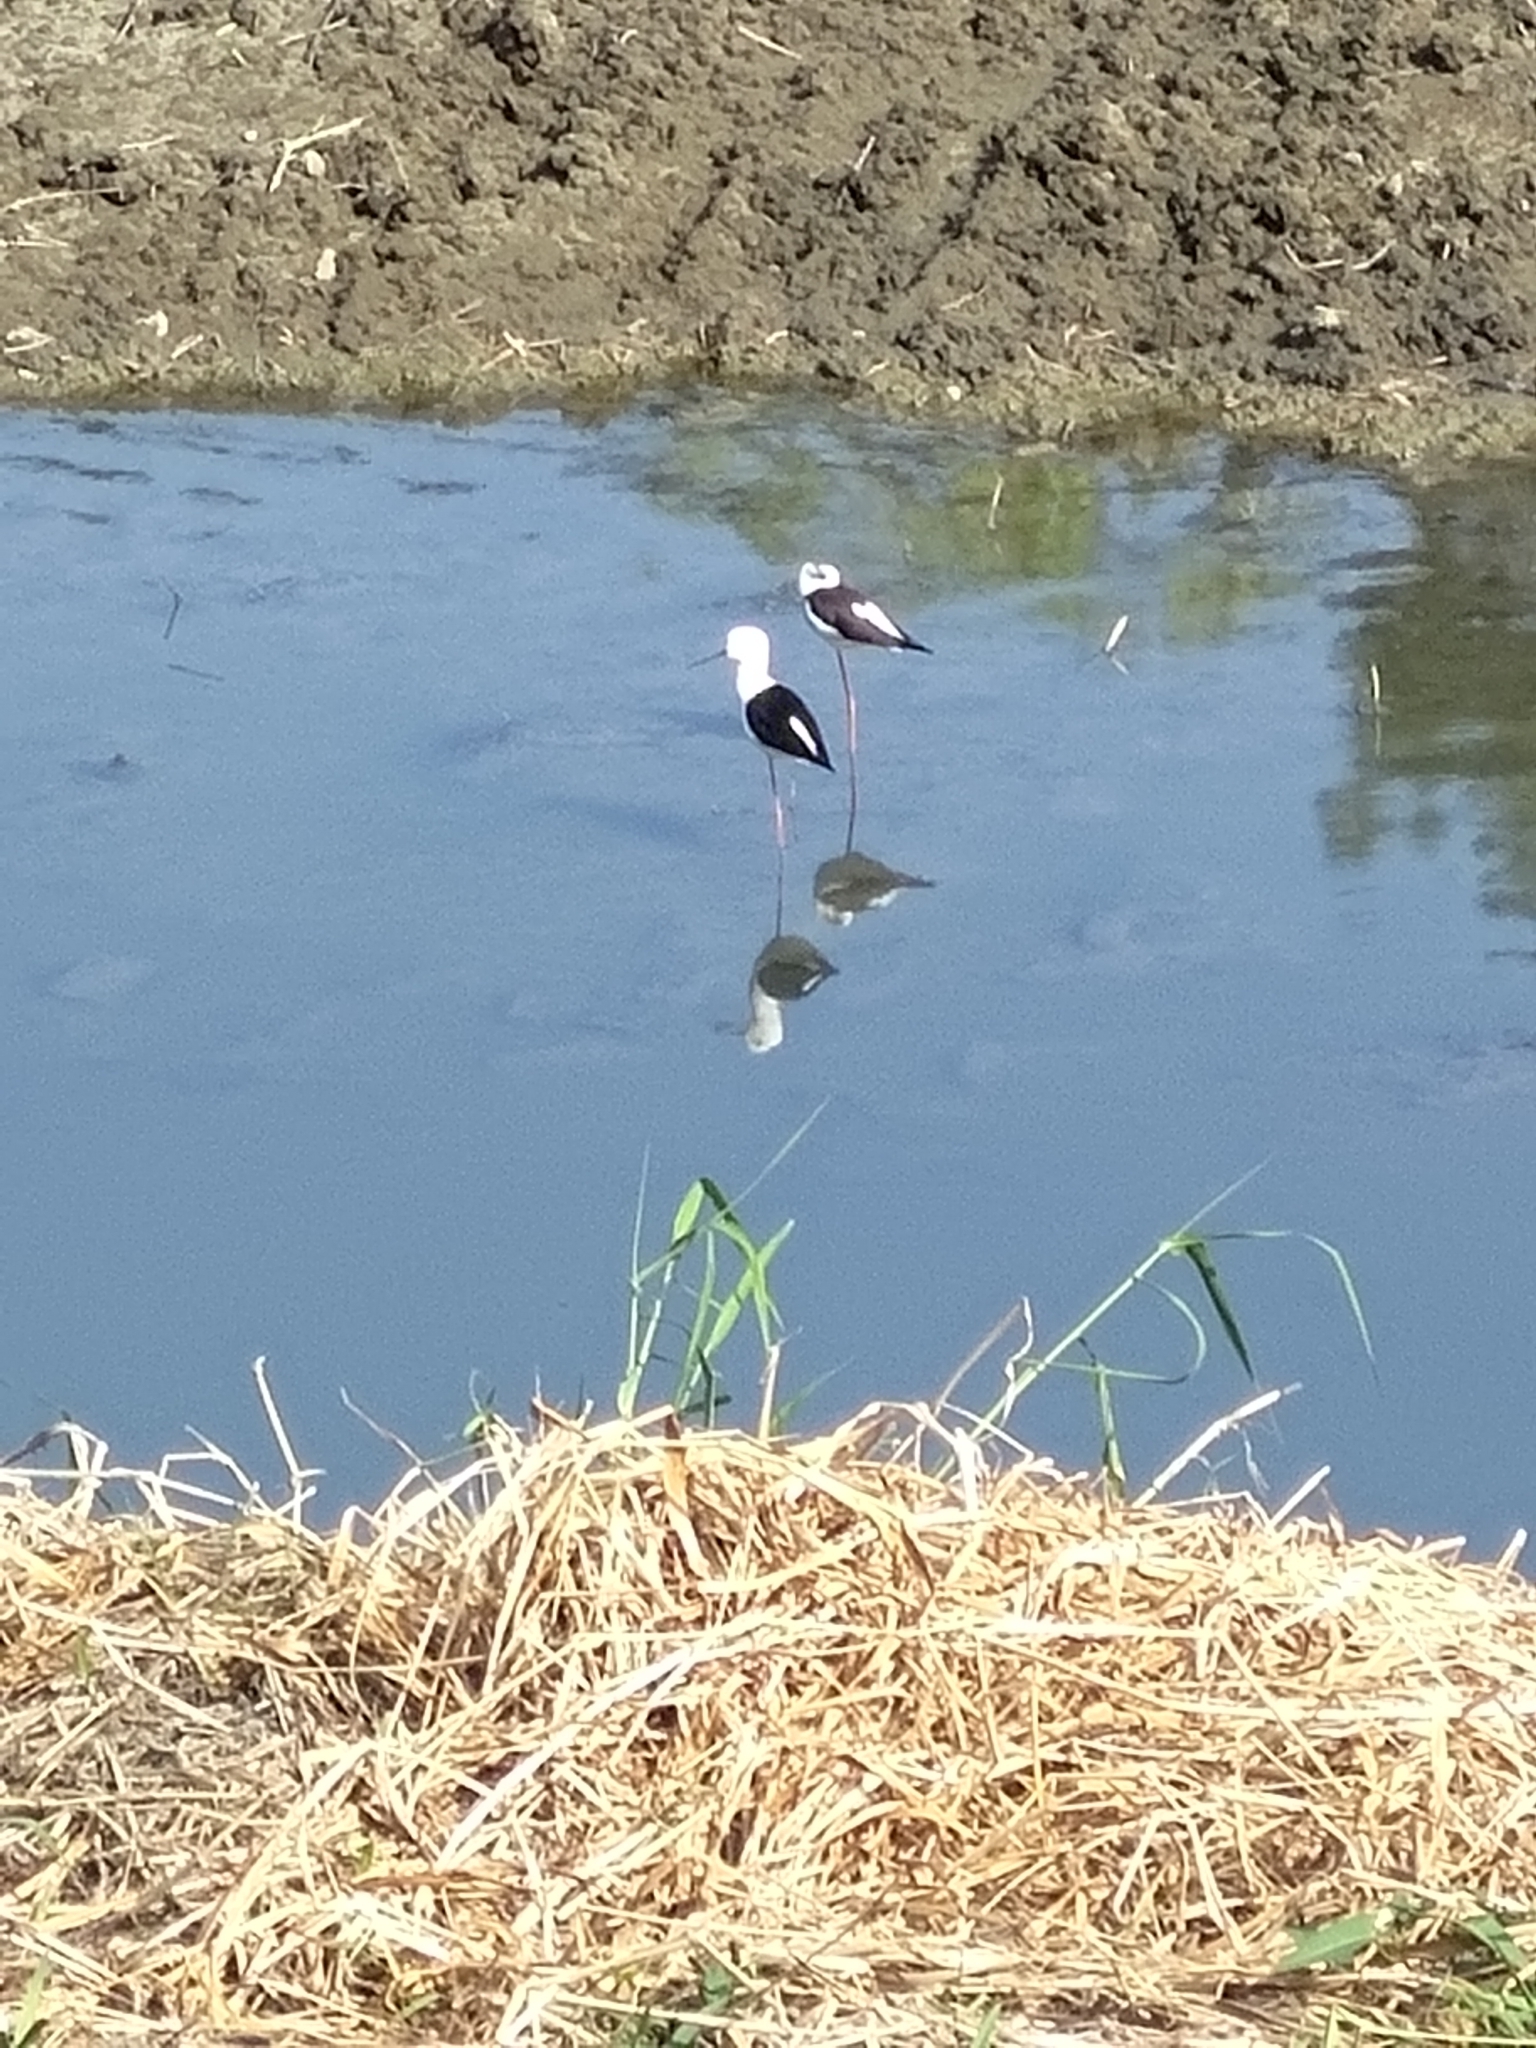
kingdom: Animalia
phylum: Chordata
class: Aves
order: Charadriiformes
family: Recurvirostridae
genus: Himantopus
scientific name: Himantopus himantopus
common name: Black-winged stilt
